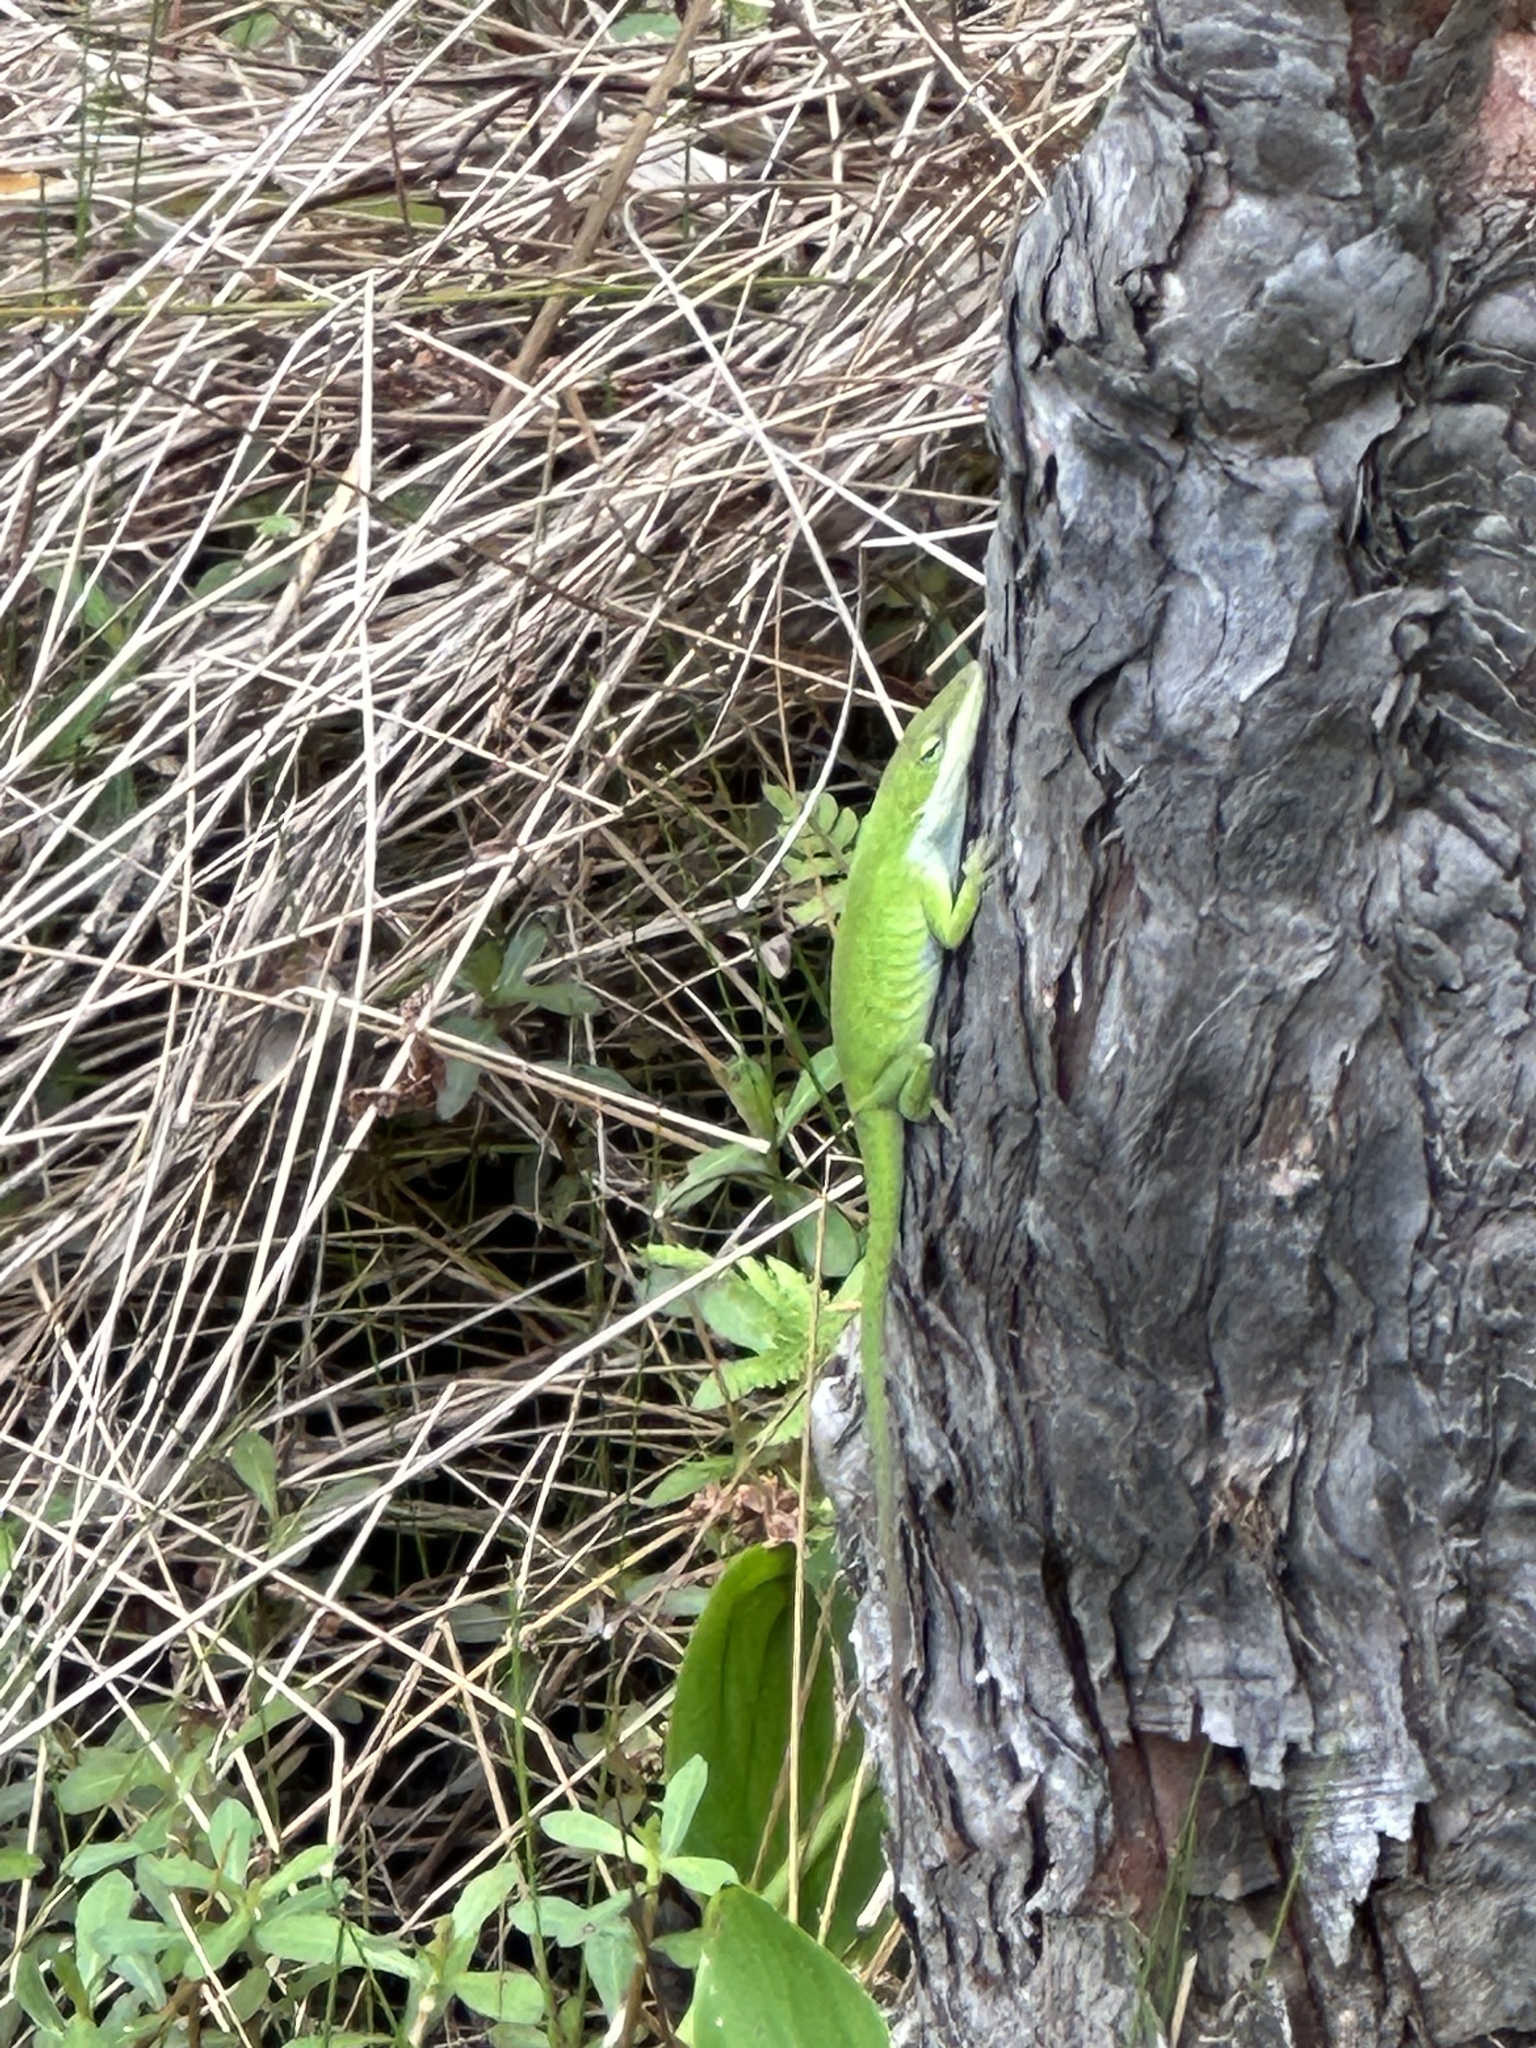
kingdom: Animalia
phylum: Chordata
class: Squamata
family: Dactyloidae
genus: Anolis
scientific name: Anolis carolinensis
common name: Green anole
